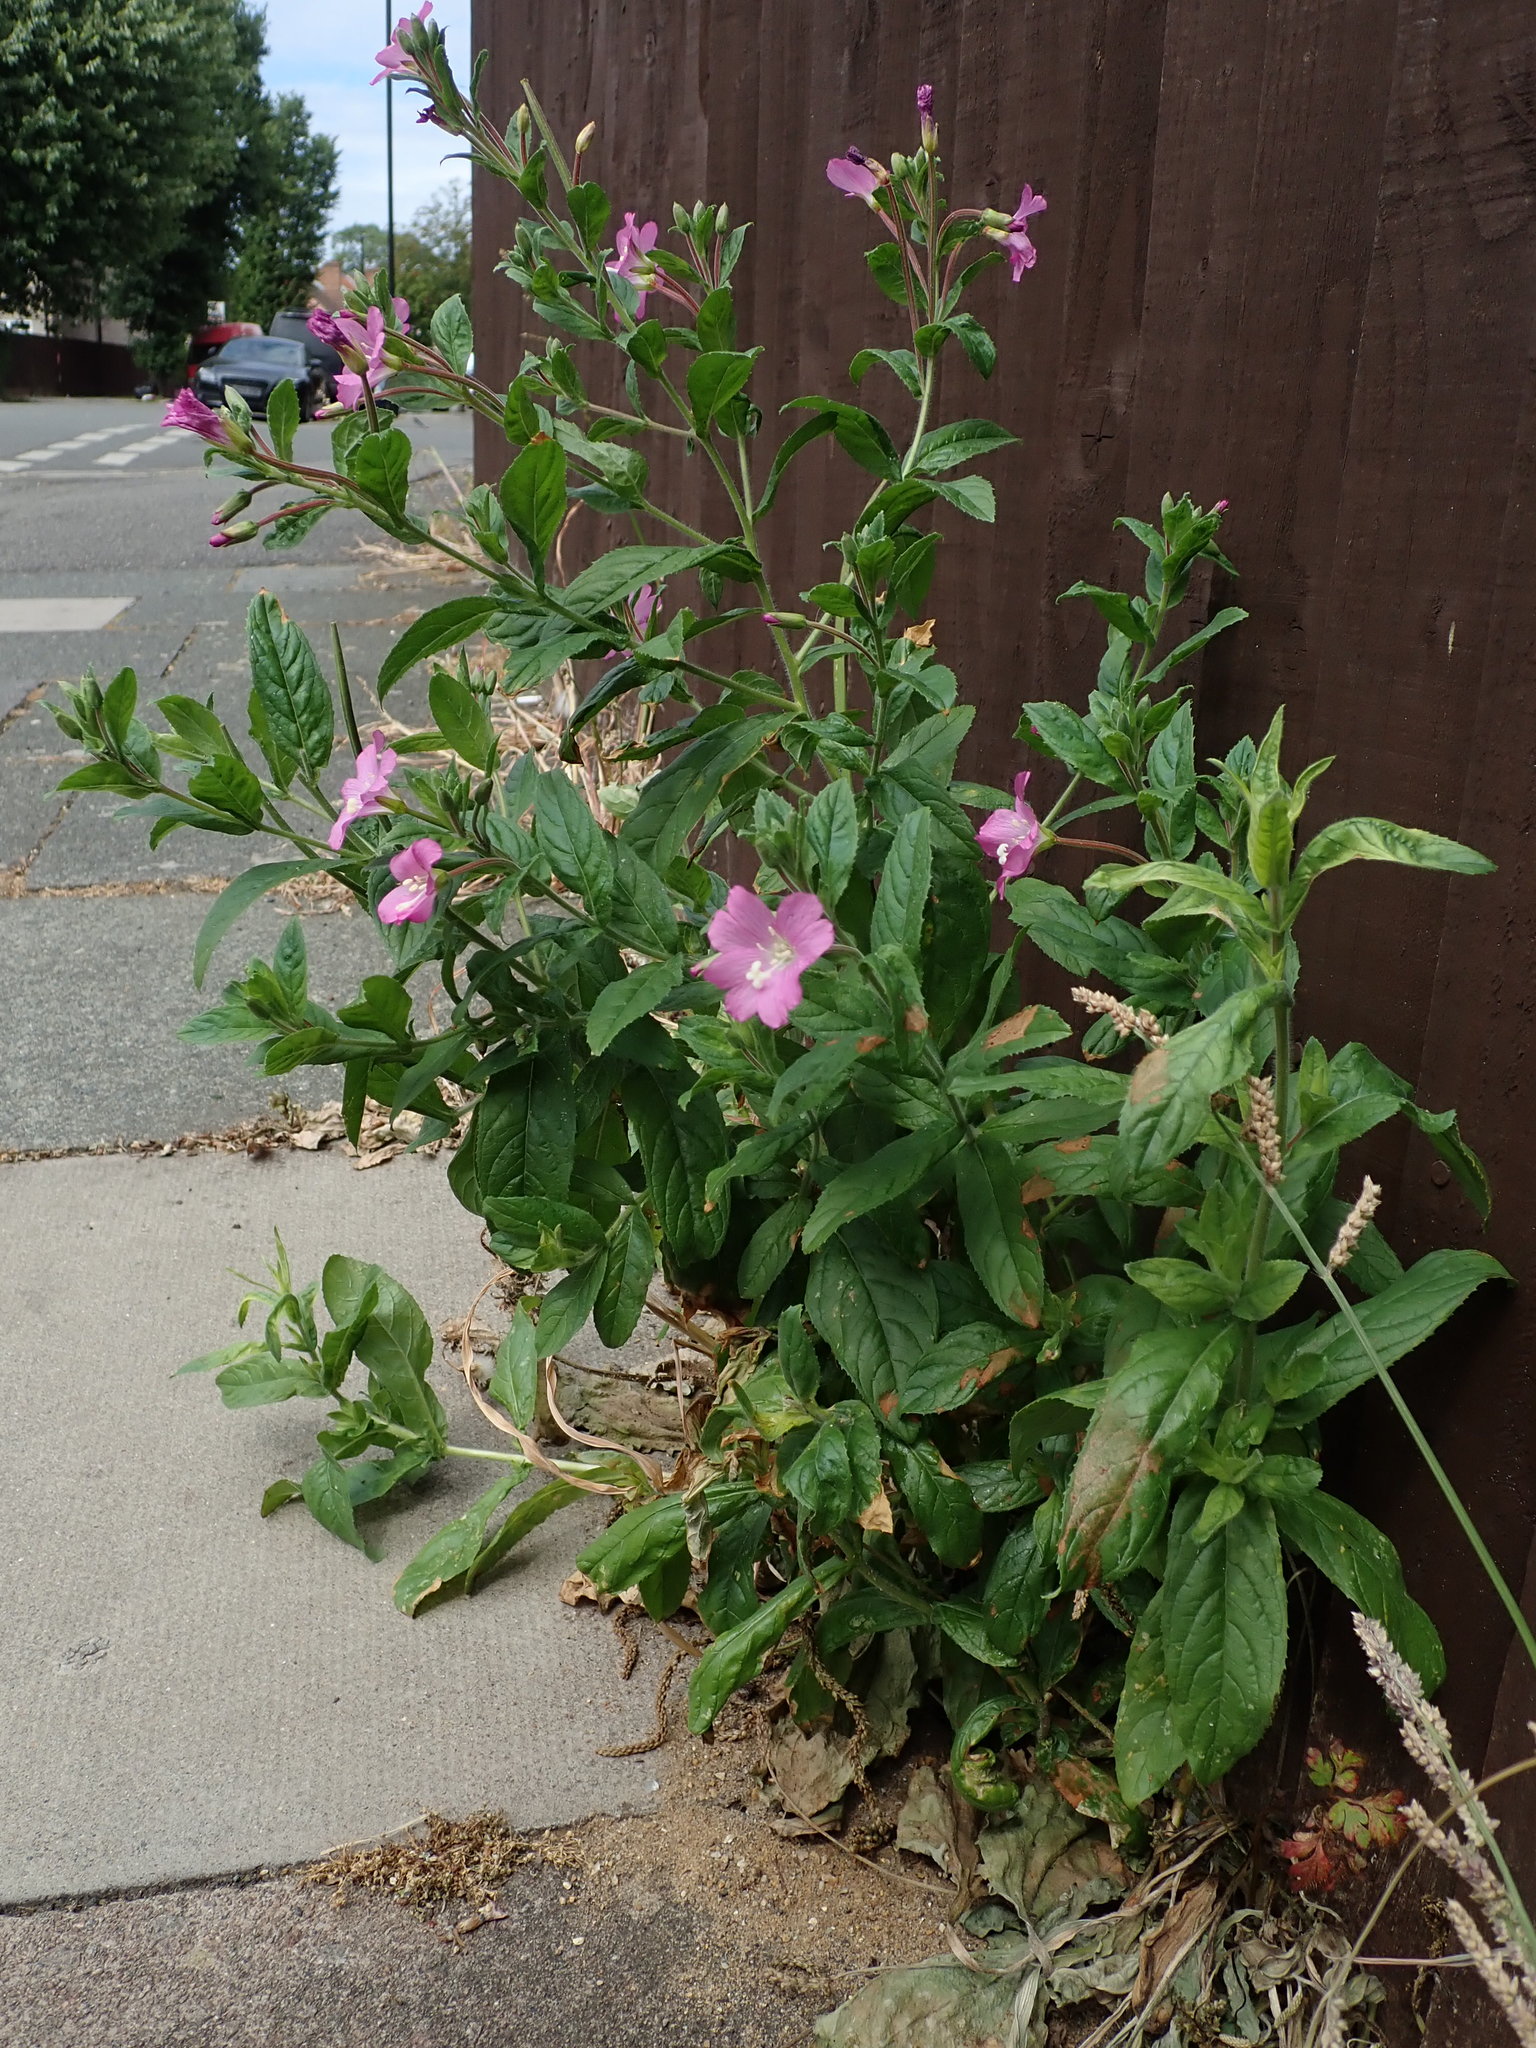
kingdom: Plantae
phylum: Tracheophyta
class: Magnoliopsida
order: Myrtales
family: Onagraceae
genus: Epilobium
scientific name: Epilobium hirsutum
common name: Great willowherb
